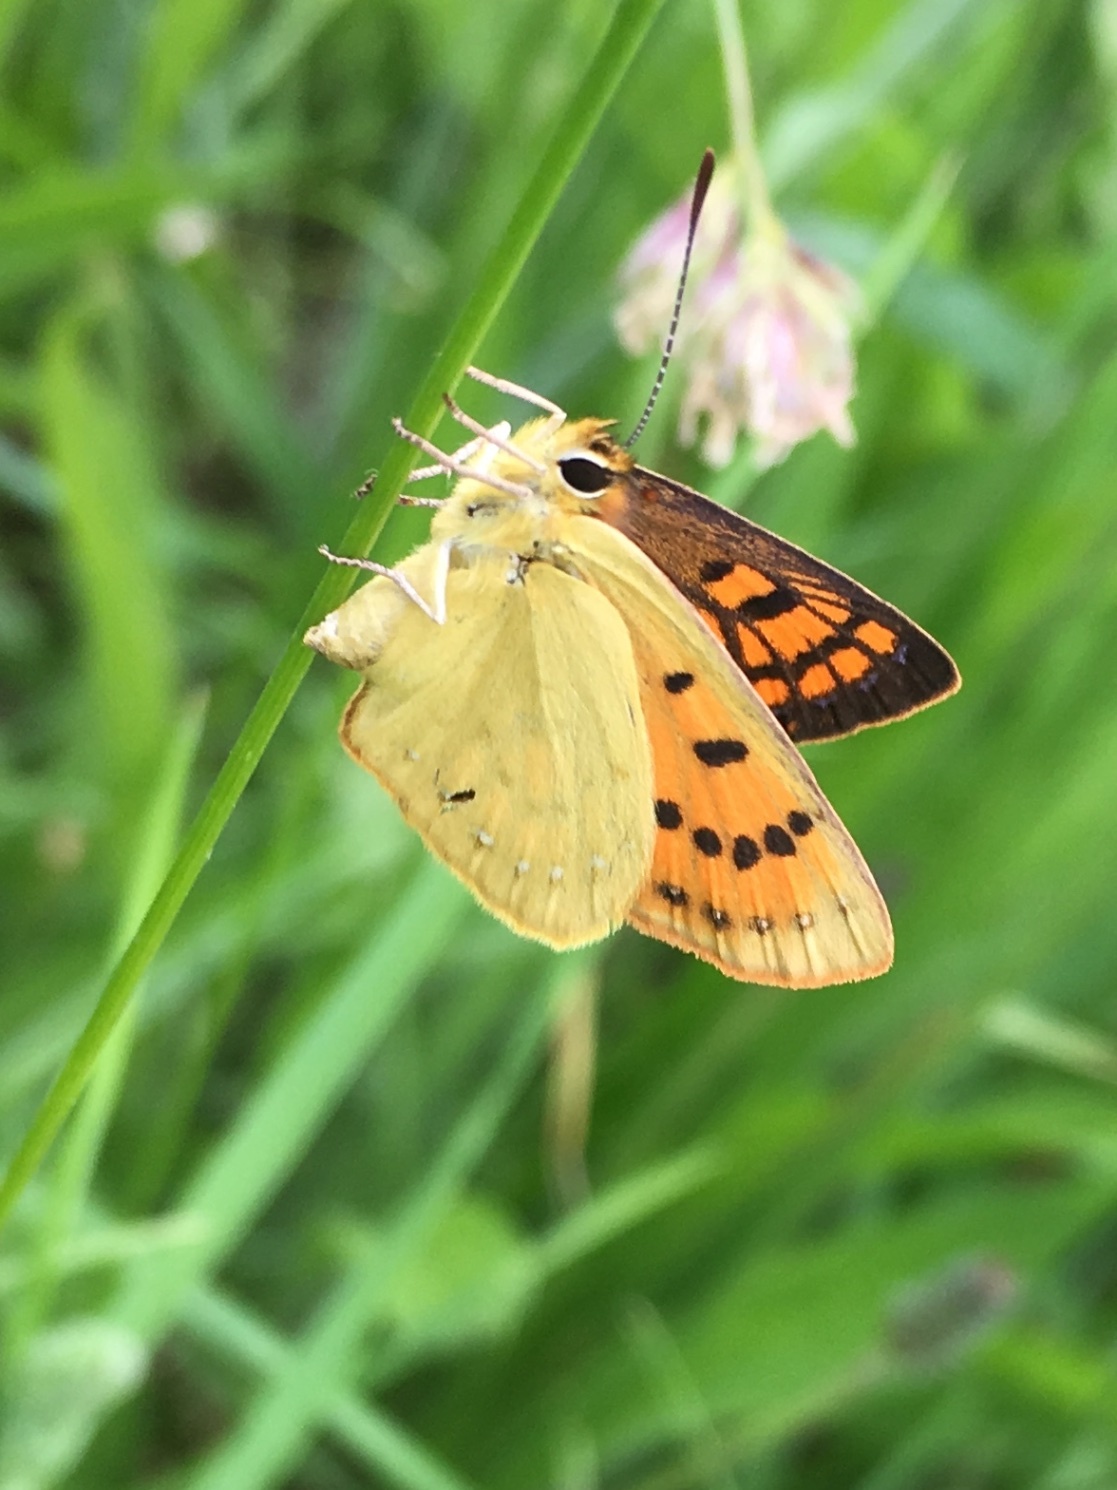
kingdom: Animalia
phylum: Arthropoda
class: Insecta
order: Lepidoptera
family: Lycaenidae
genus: Lycaena
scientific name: Lycaena
